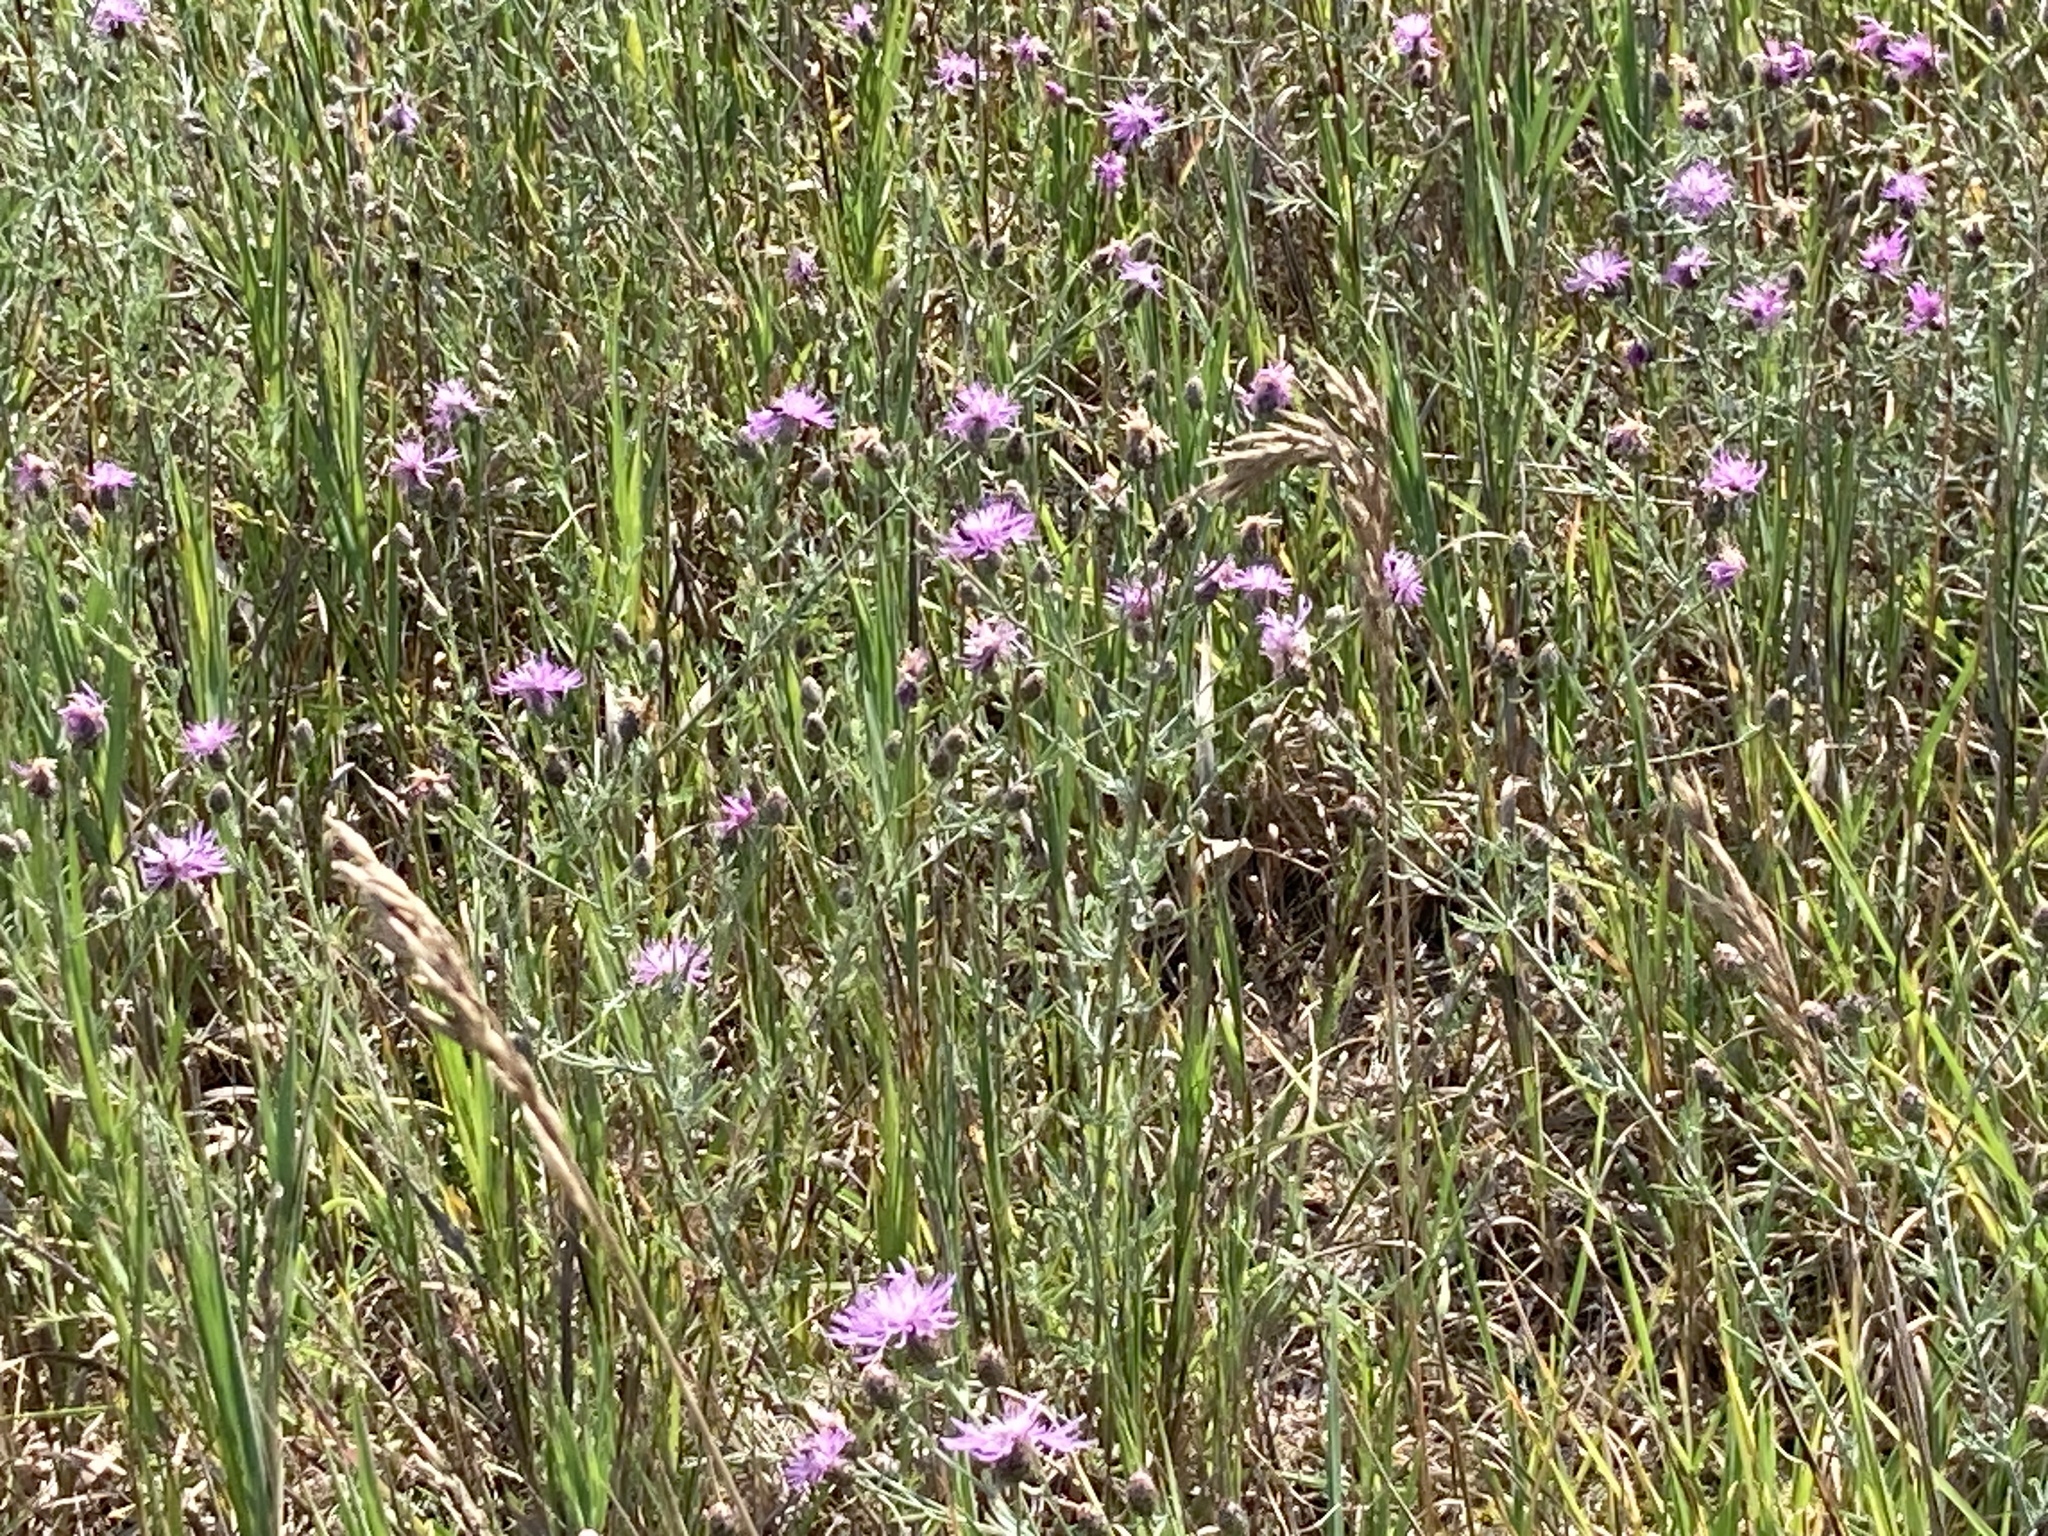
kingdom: Plantae
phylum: Tracheophyta
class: Magnoliopsida
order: Asterales
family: Asteraceae
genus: Centaurea
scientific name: Centaurea stoebe
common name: Spotted knapweed
